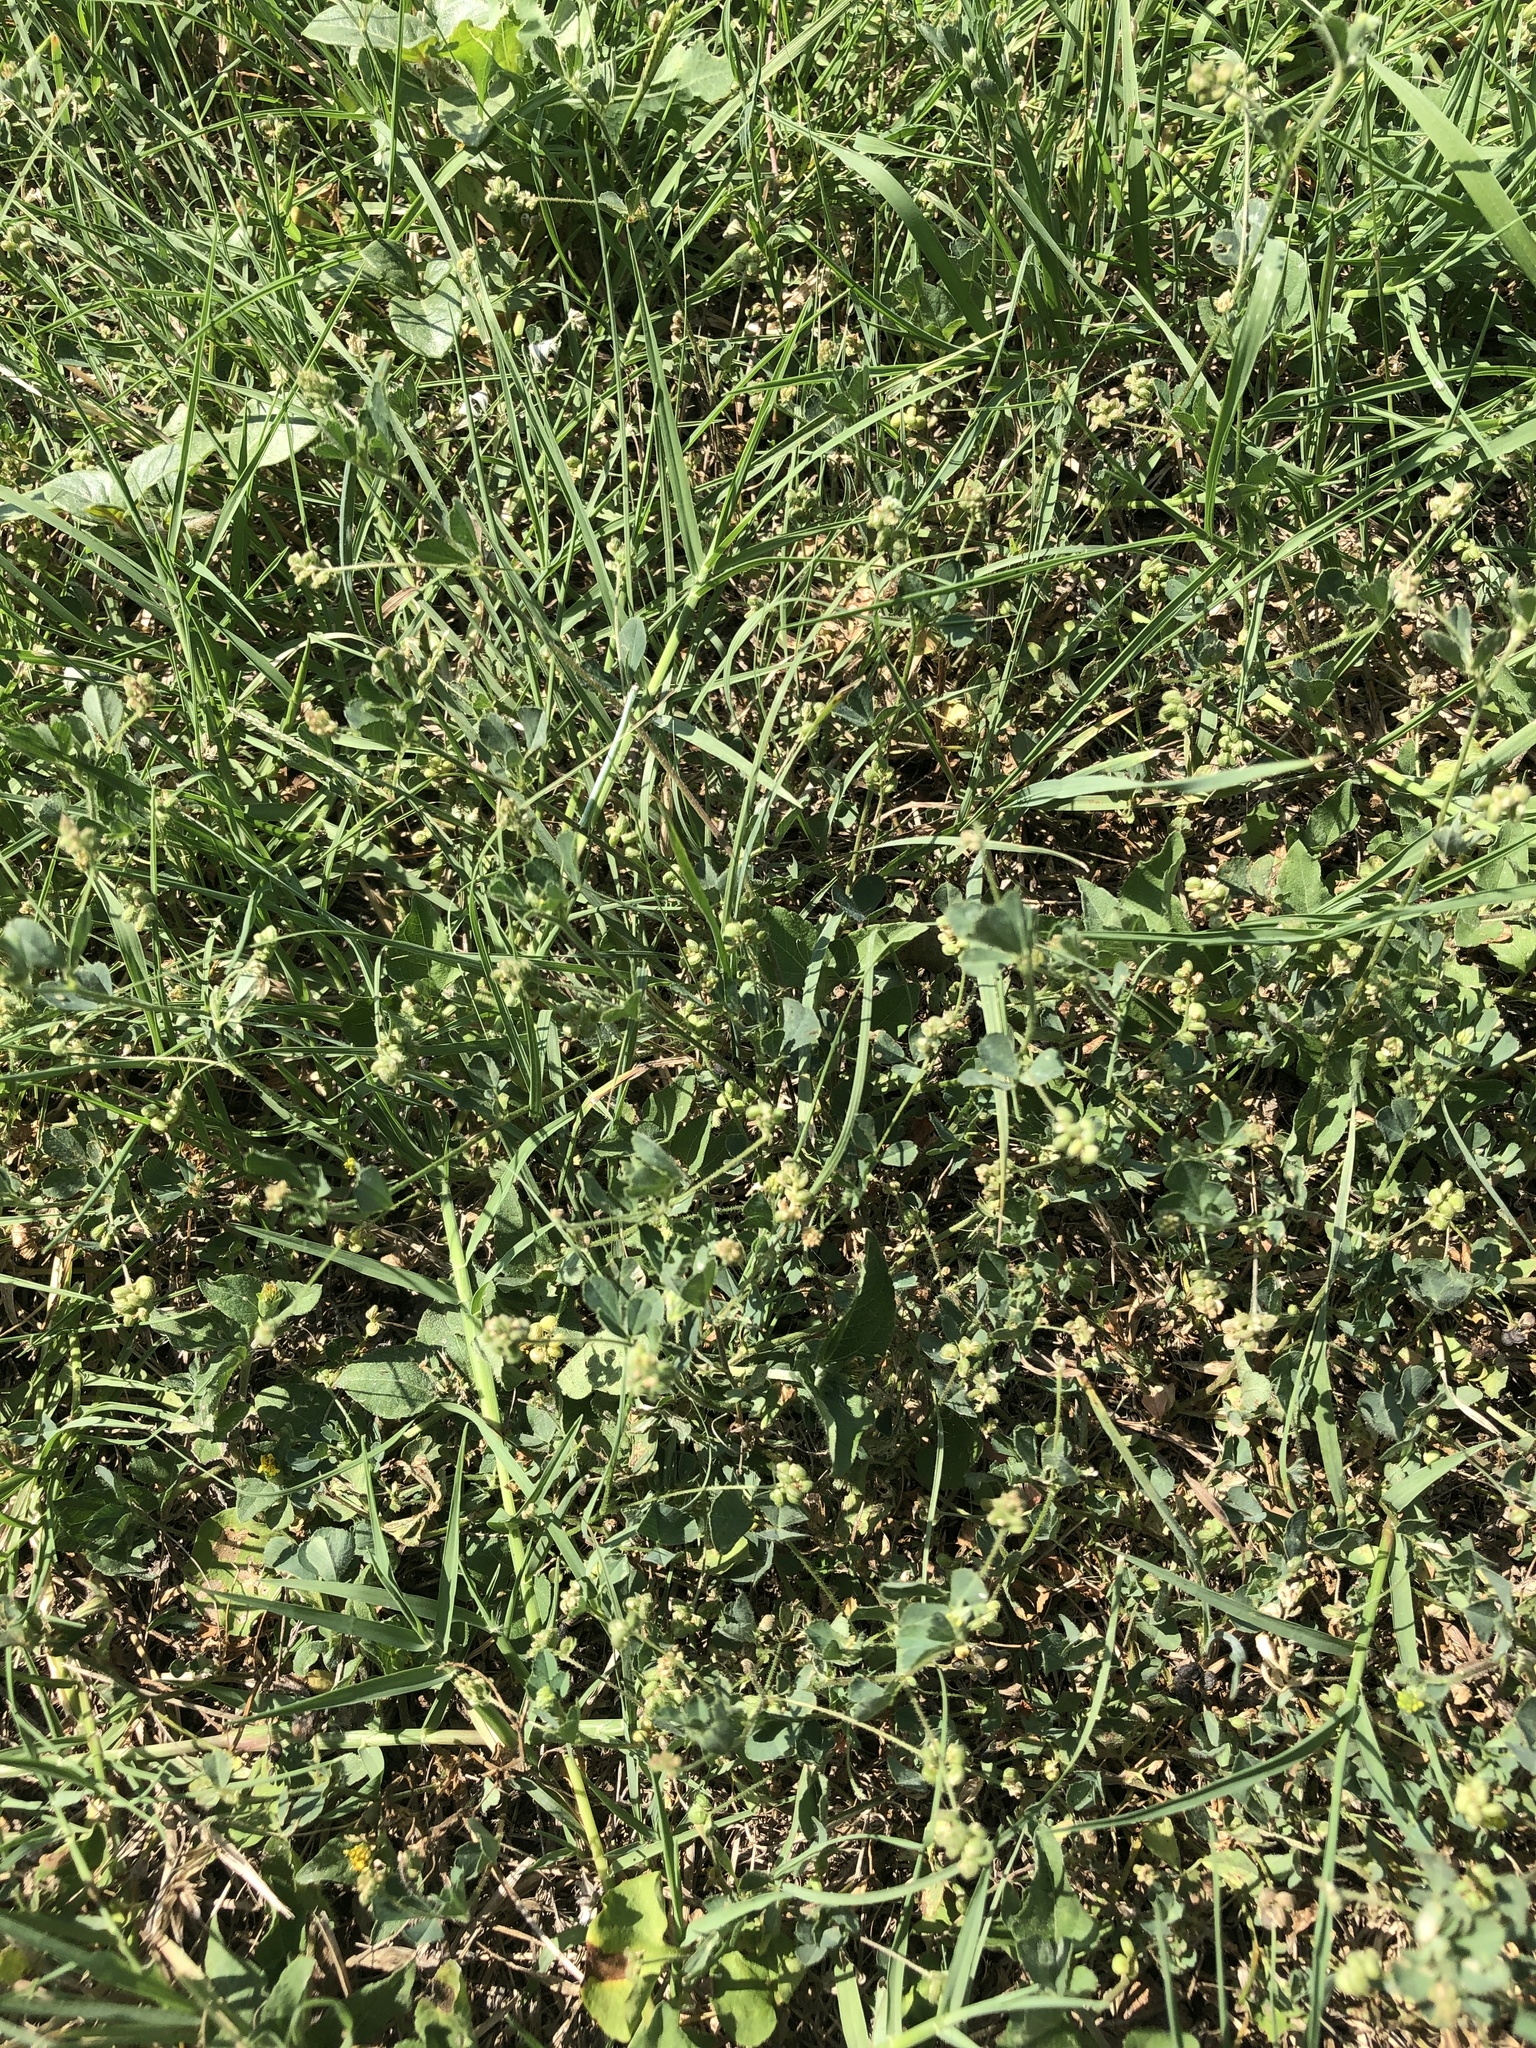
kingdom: Plantae
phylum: Tracheophyta
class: Magnoliopsida
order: Fabales
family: Fabaceae
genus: Medicago
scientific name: Medicago lupulina
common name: Black medick
